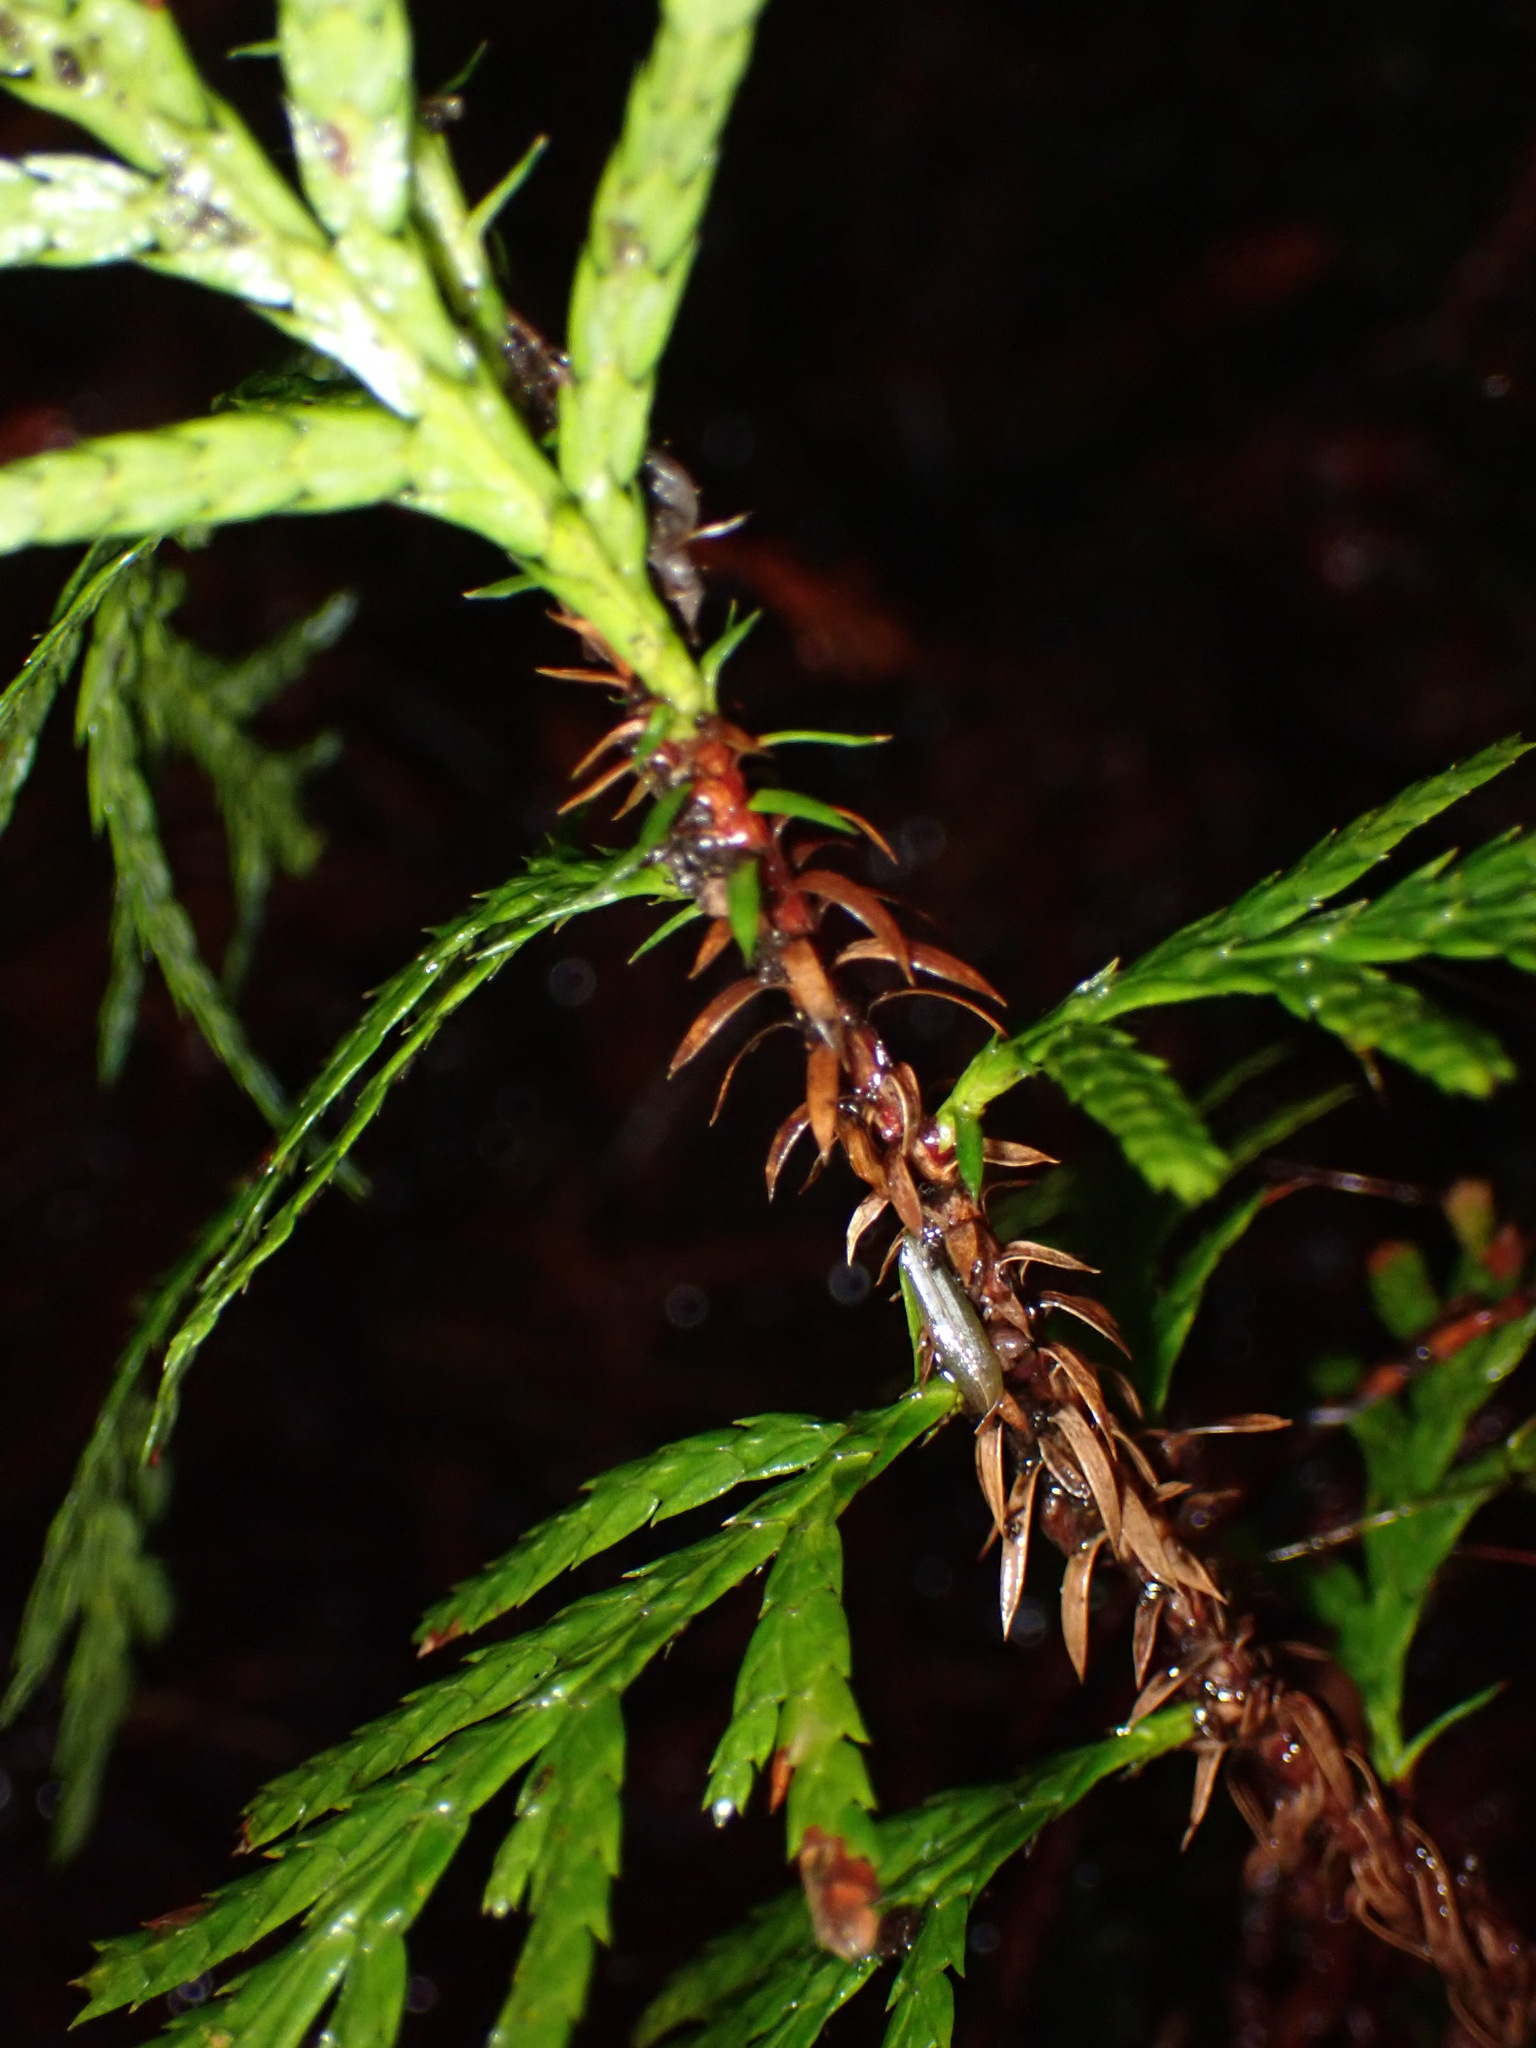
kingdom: Plantae
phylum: Tracheophyta
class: Pinopsida
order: Pinales
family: Cupressaceae
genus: Thuja
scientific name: Thuja plicata
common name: Western red-cedar
